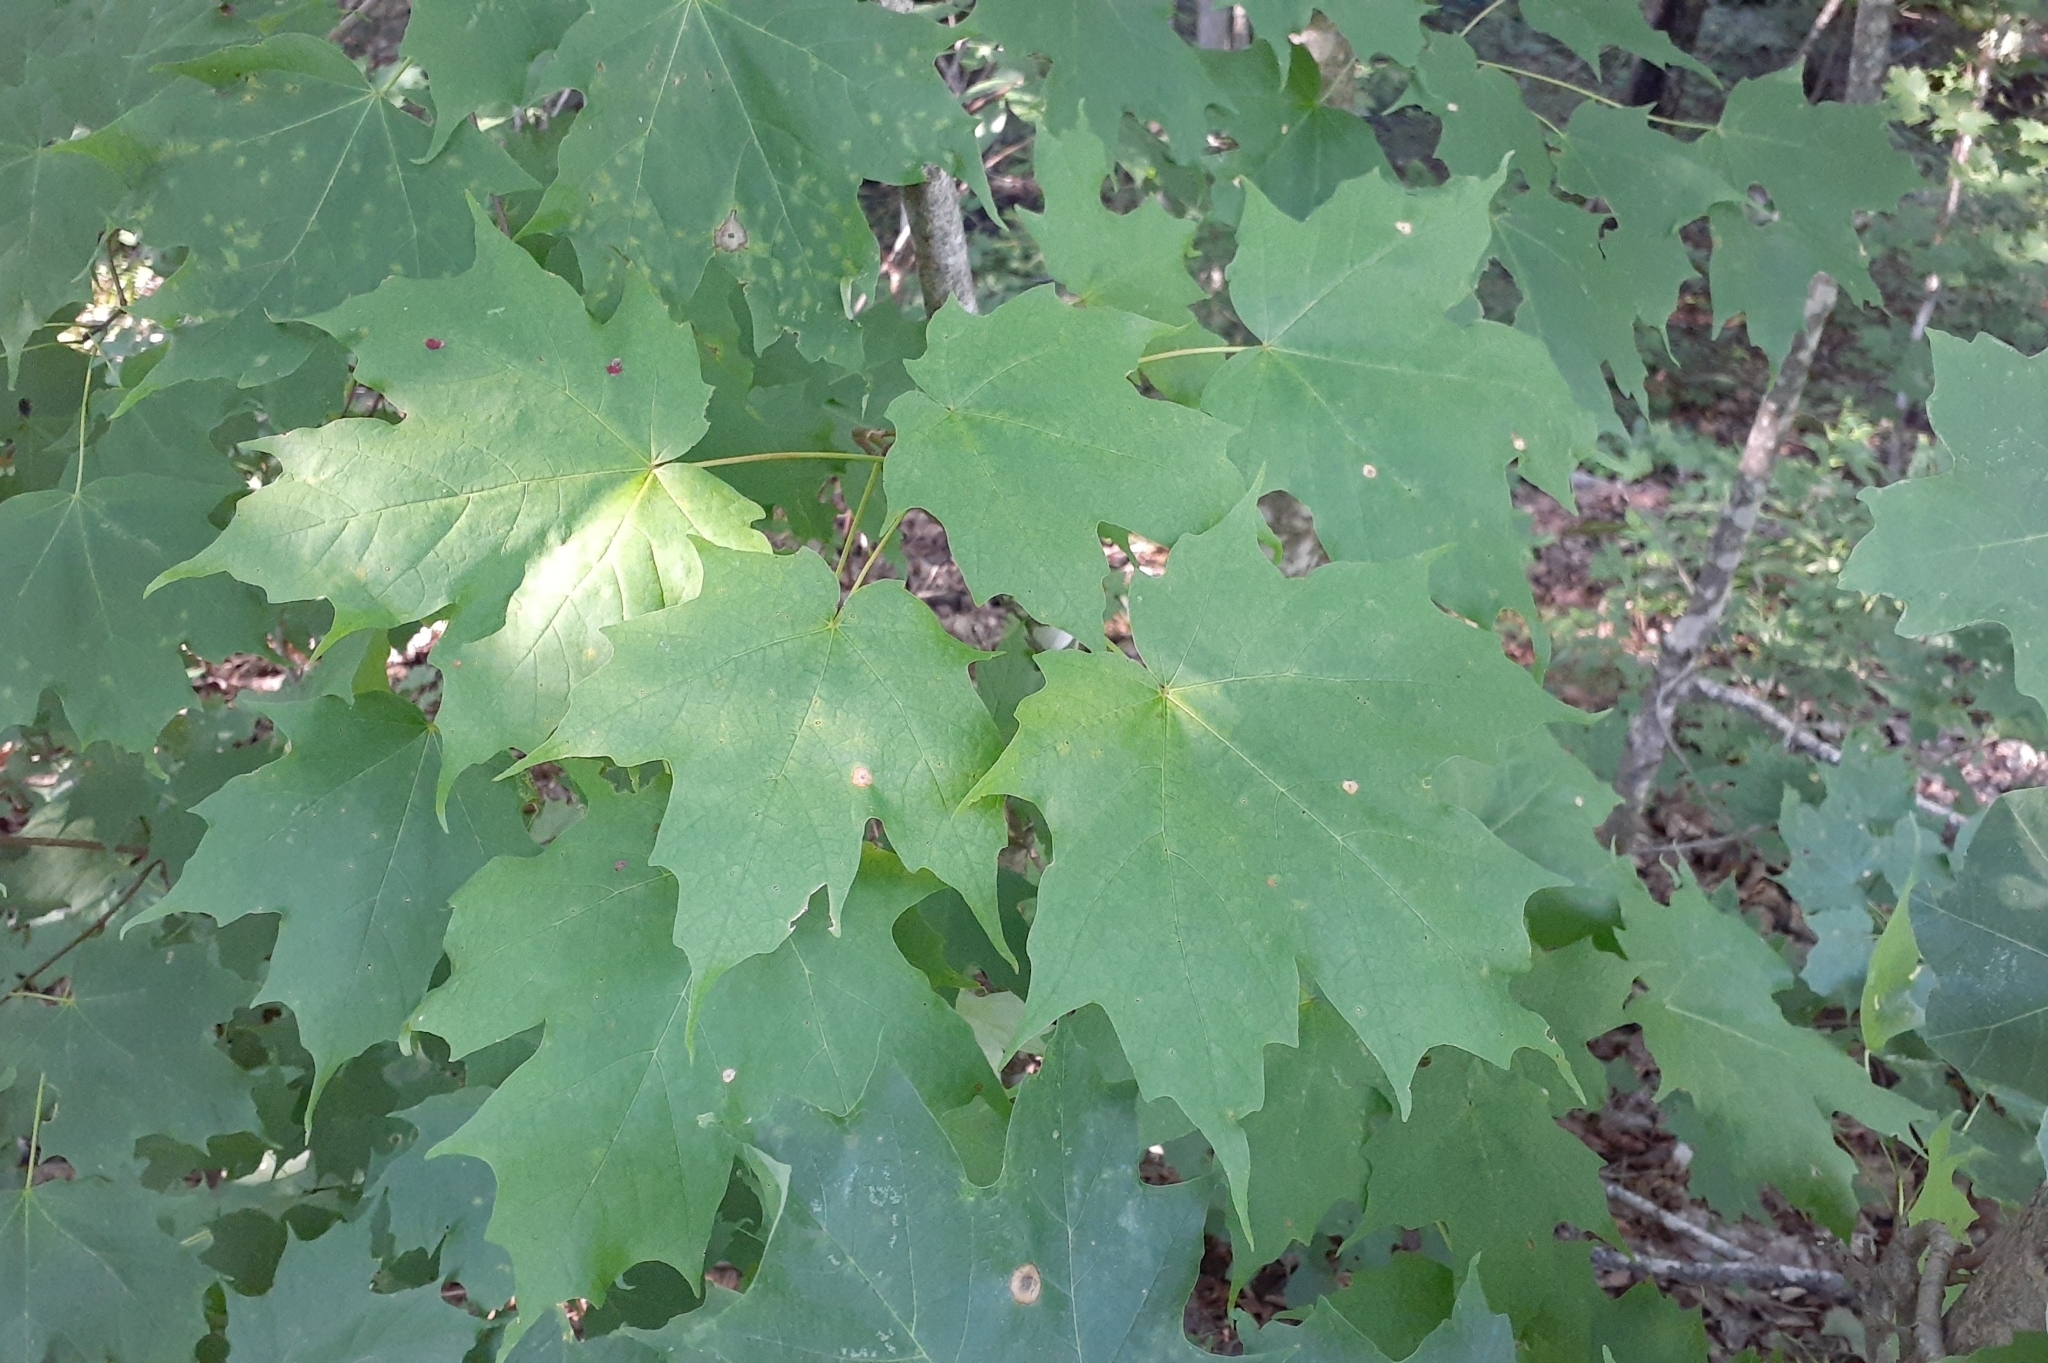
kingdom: Plantae
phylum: Tracheophyta
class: Magnoliopsida
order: Sapindales
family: Sapindaceae
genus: Acer
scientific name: Acer saccharum
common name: Sugar maple
